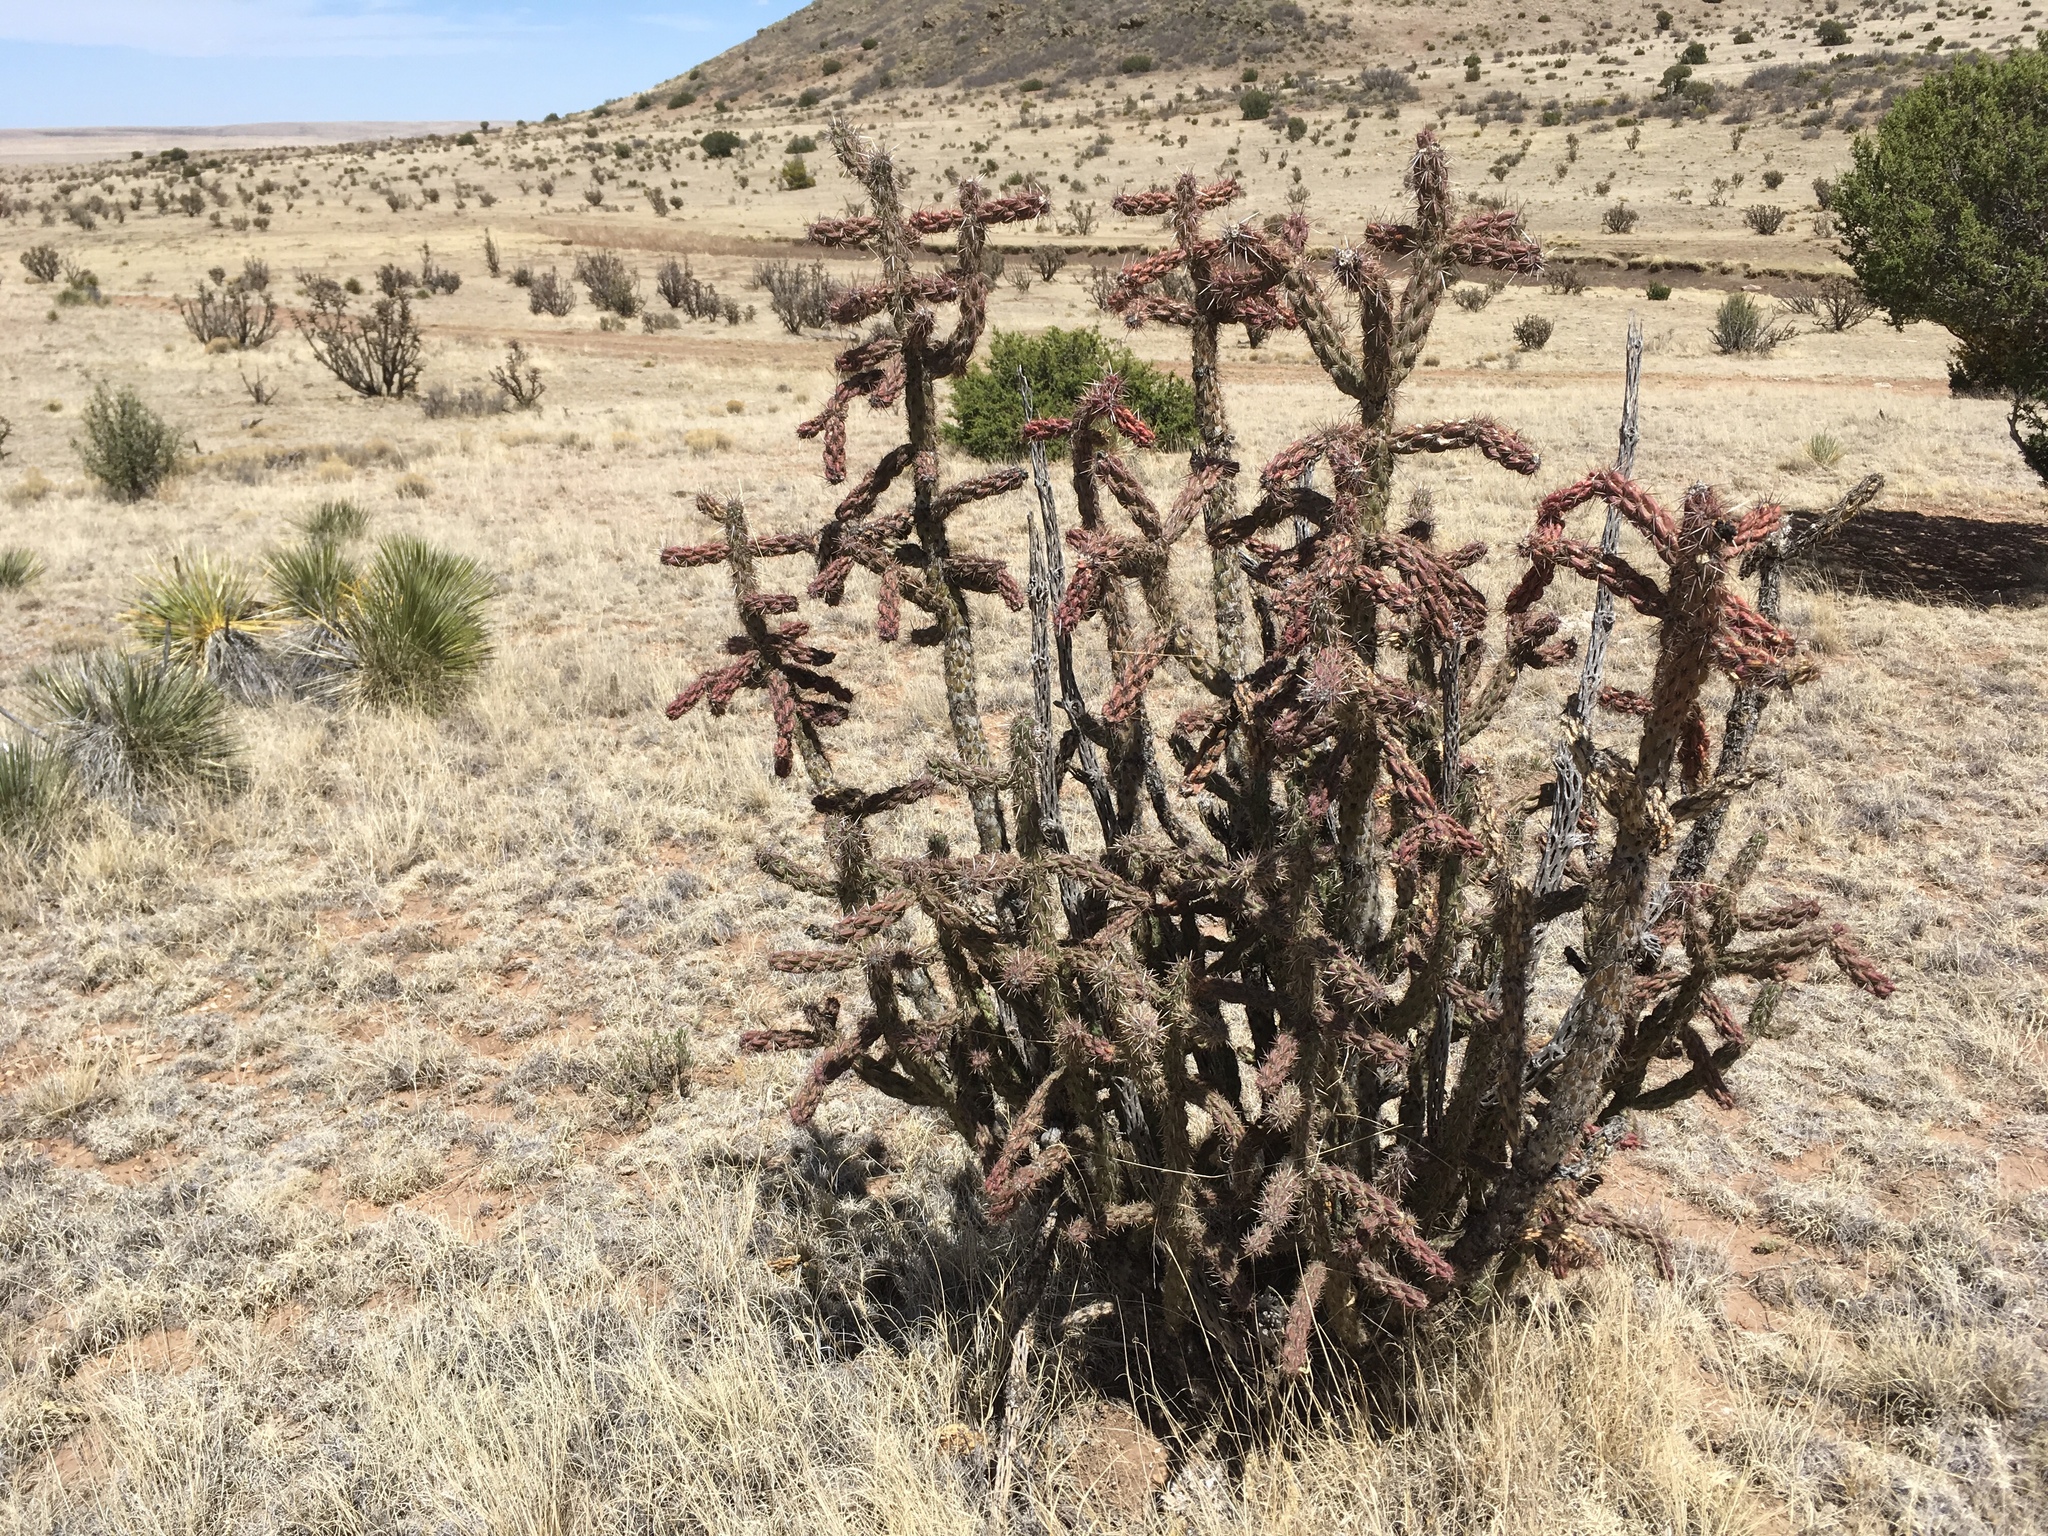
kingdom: Plantae
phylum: Tracheophyta
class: Magnoliopsida
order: Caryophyllales
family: Cactaceae
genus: Cylindropuntia
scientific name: Cylindropuntia imbricata
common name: Candelabrum cactus
